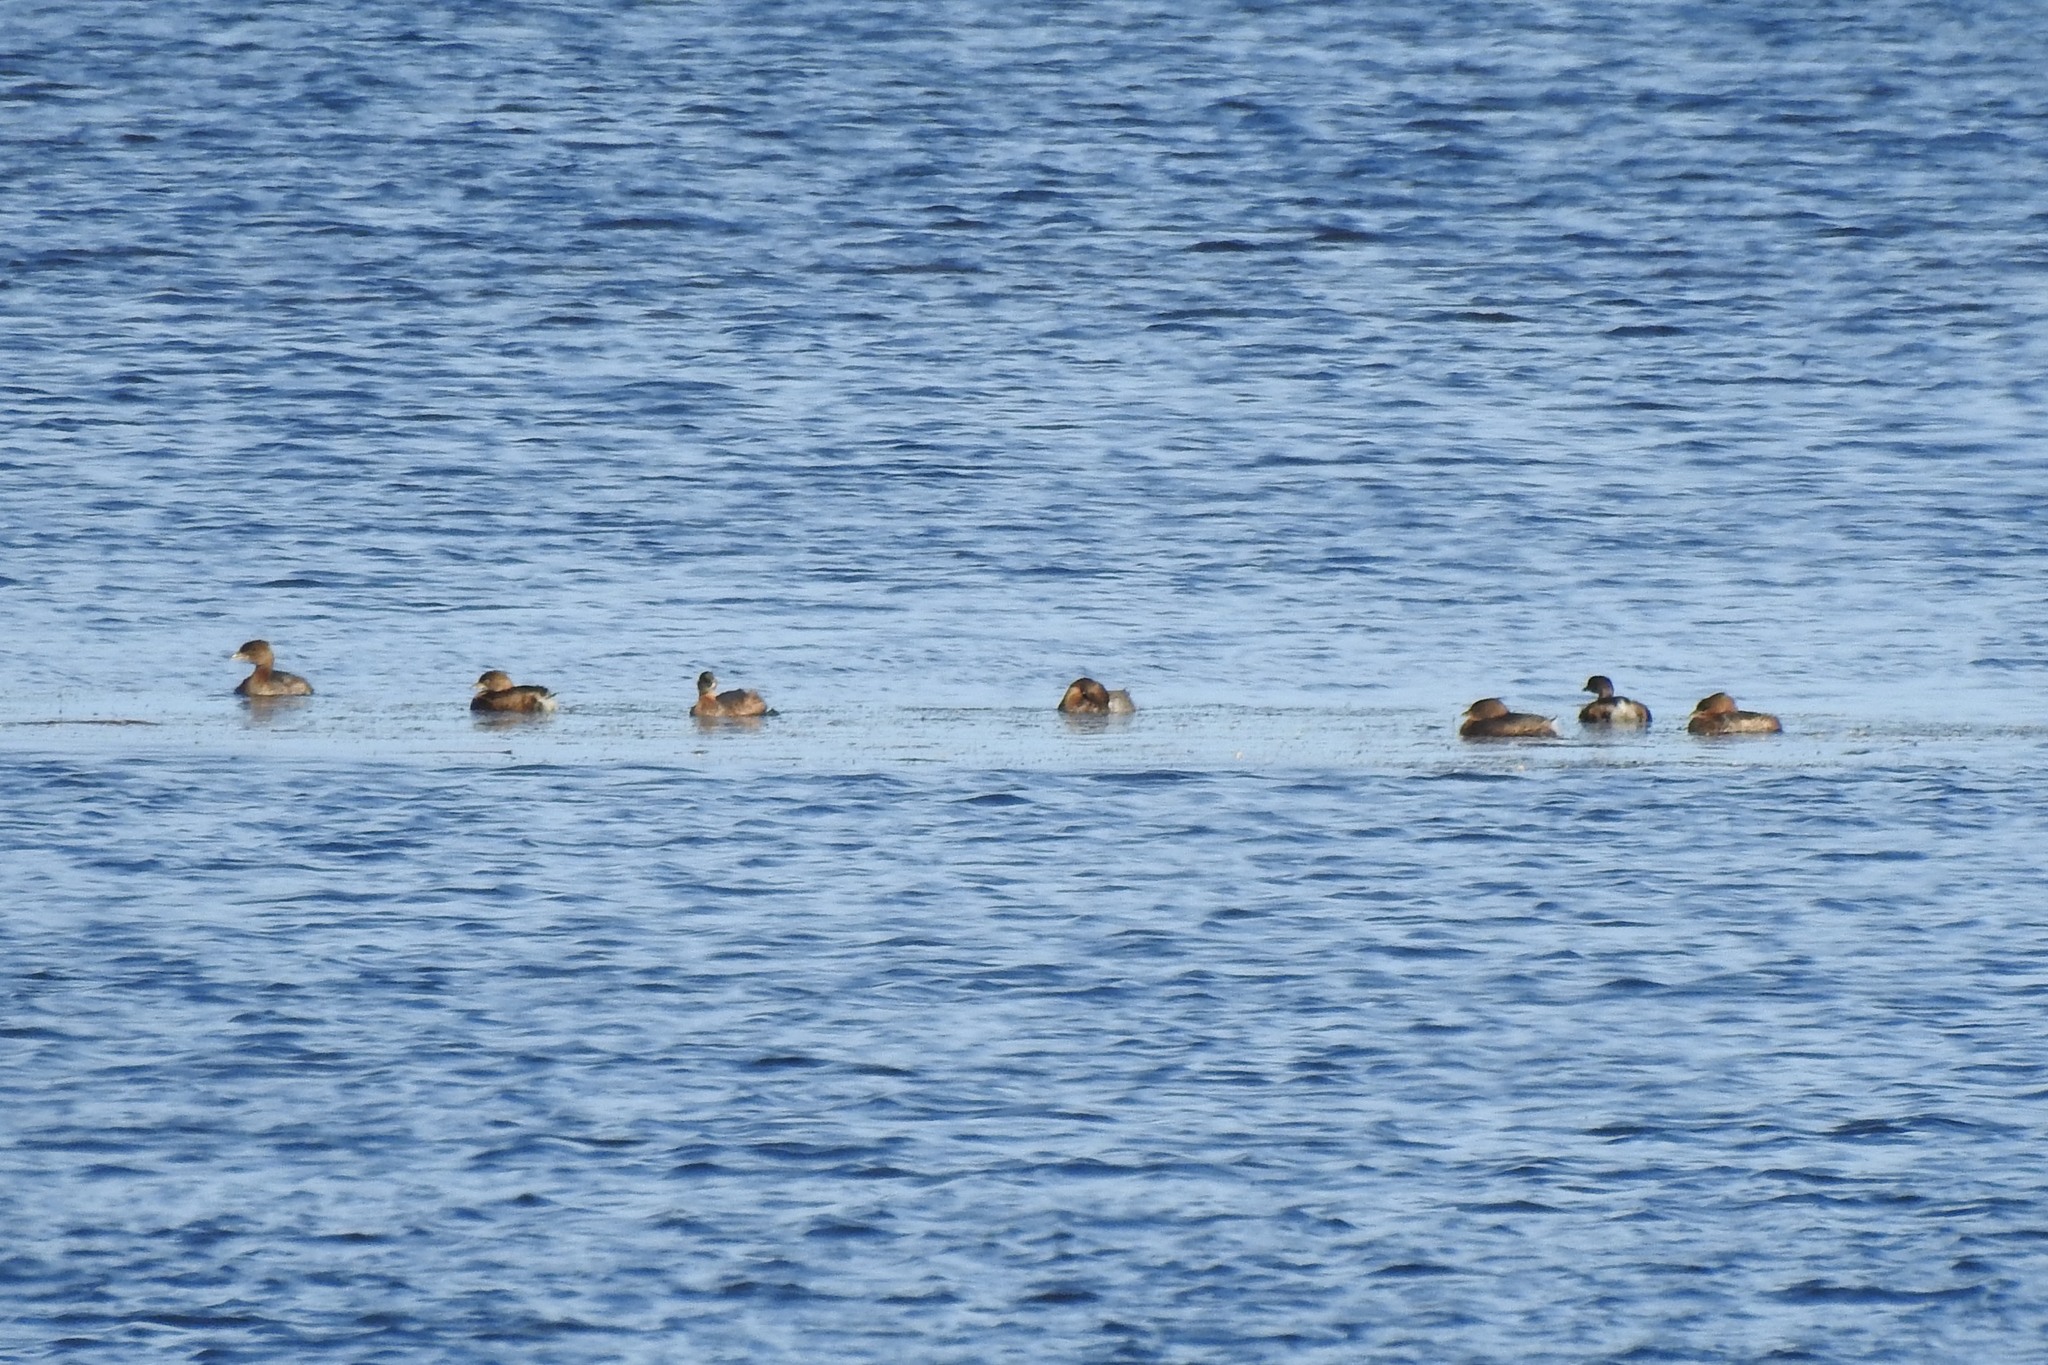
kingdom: Animalia
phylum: Chordata
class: Aves
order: Podicipediformes
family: Podicipedidae
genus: Podilymbus
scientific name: Podilymbus podiceps
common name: Pied-billed grebe
